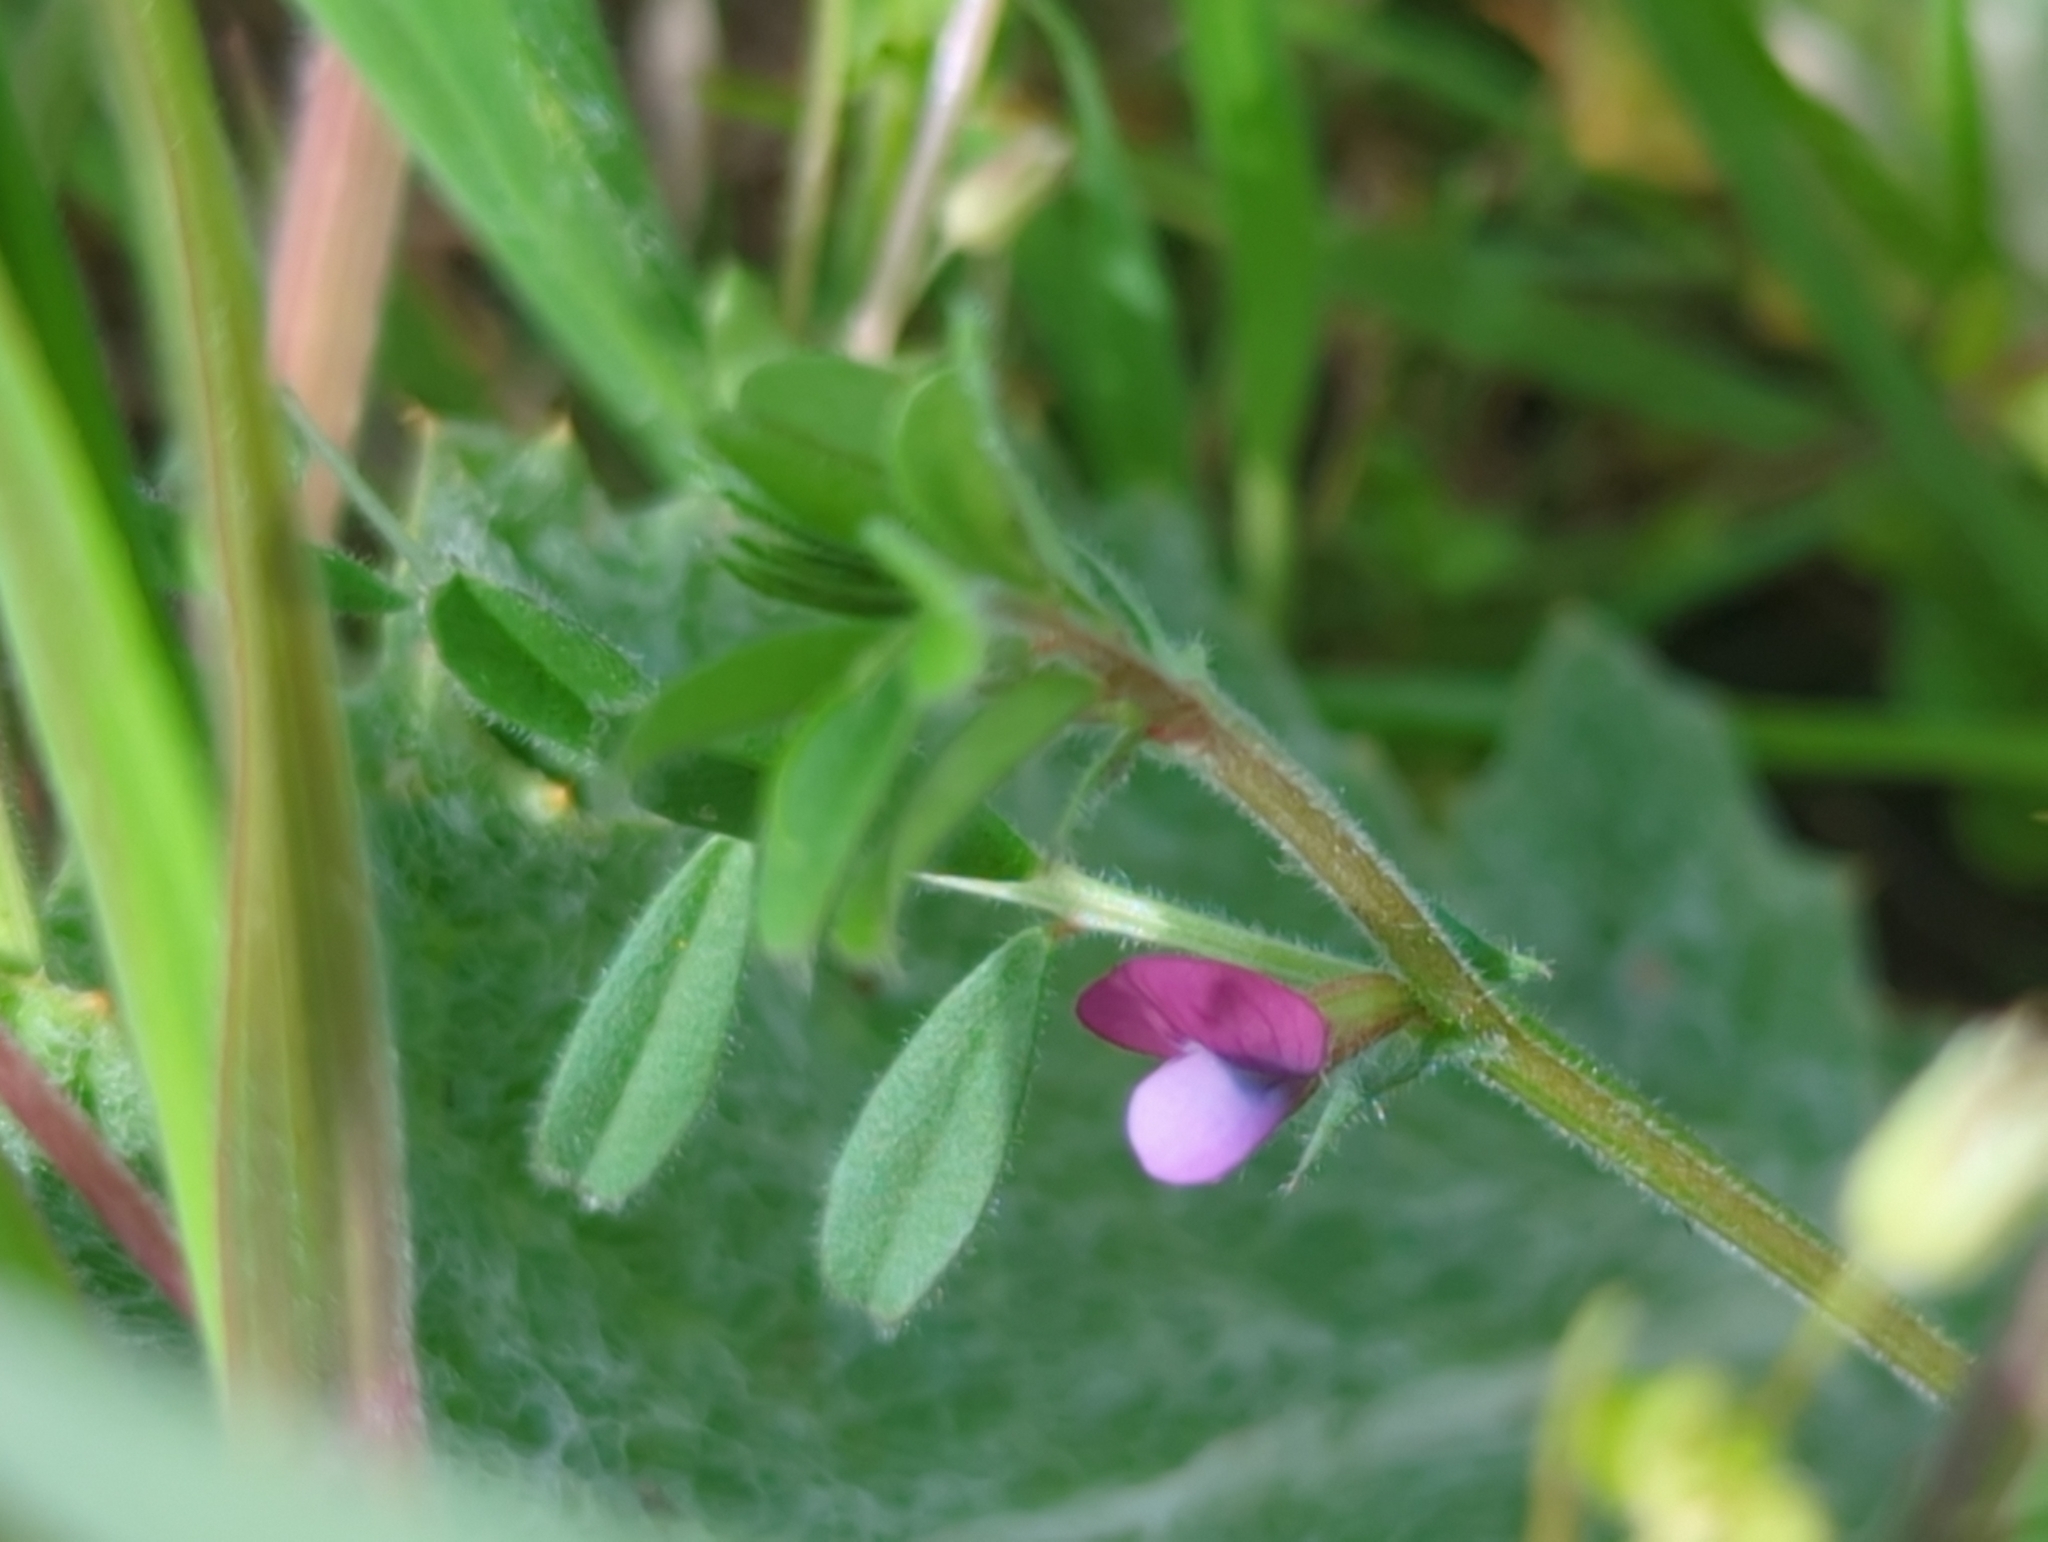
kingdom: Plantae
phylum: Tracheophyta
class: Magnoliopsida
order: Fabales
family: Fabaceae
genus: Vicia
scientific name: Vicia lathyroides
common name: Spring vetch
